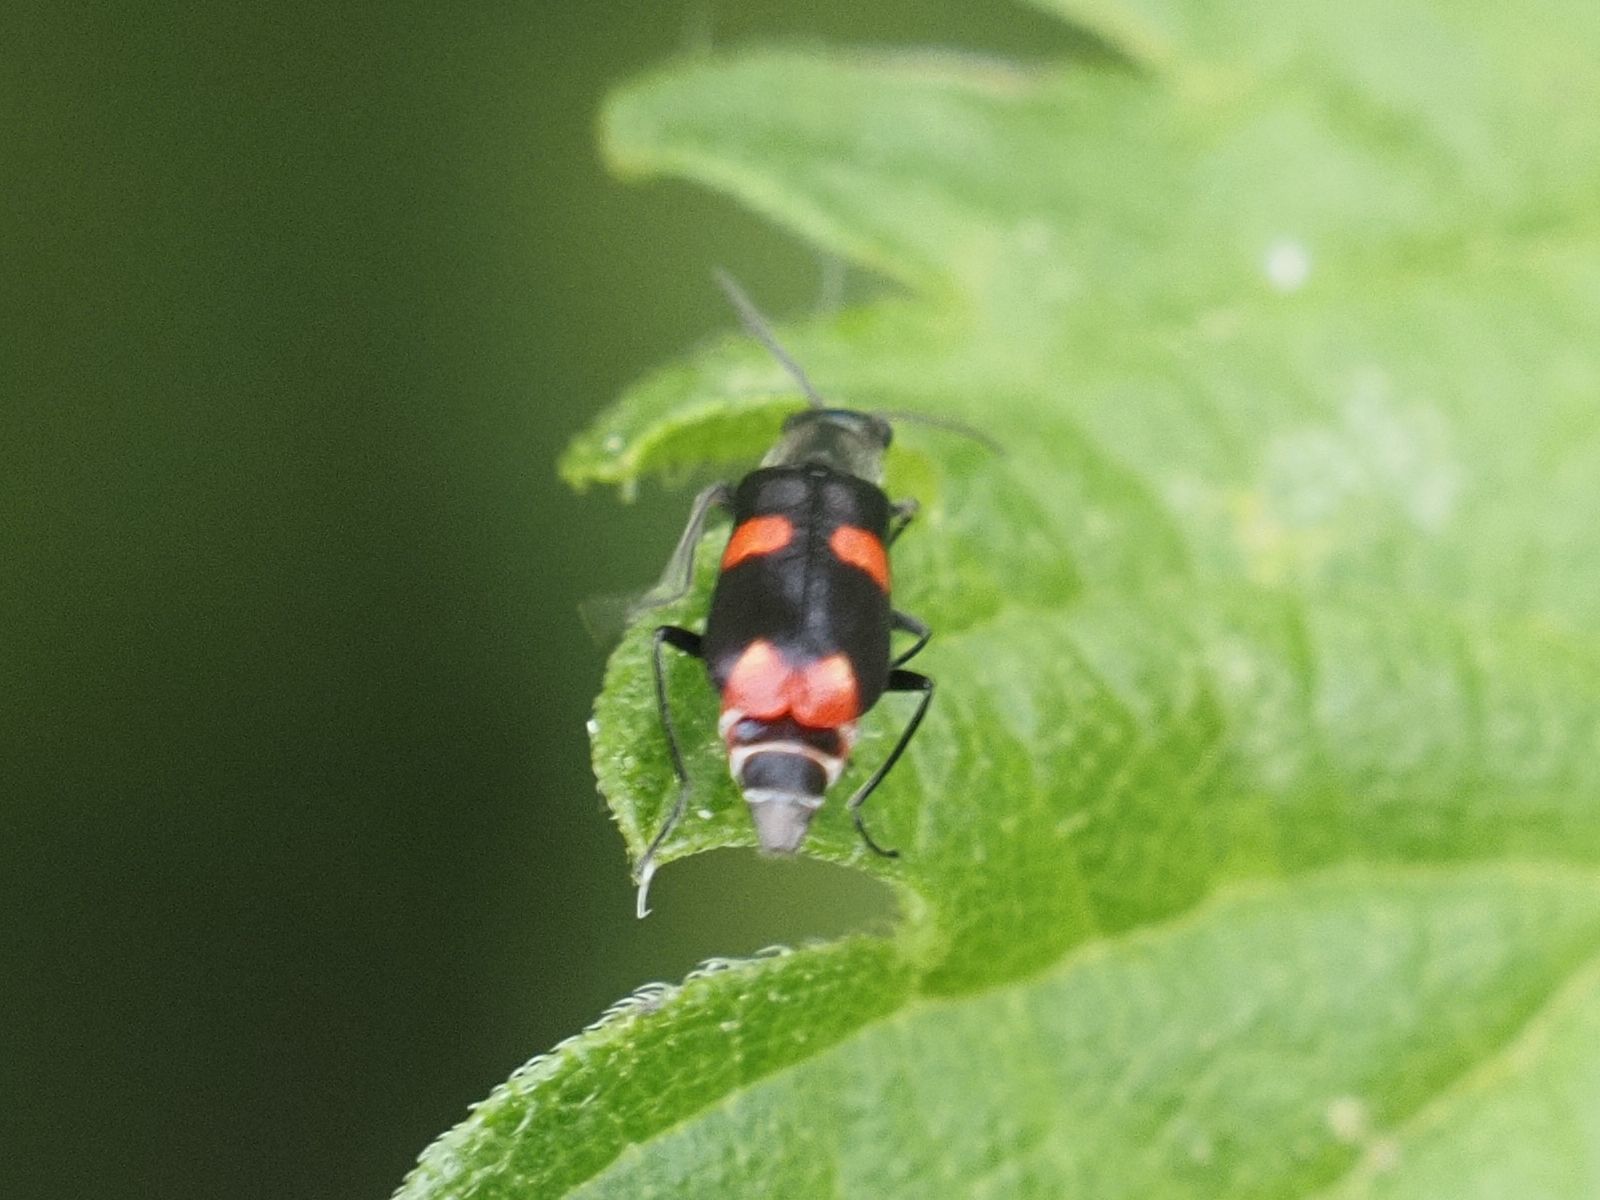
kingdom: Animalia
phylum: Arthropoda
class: Insecta
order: Coleoptera
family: Melyridae
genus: Anthocomus
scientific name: Anthocomus fasciatus
